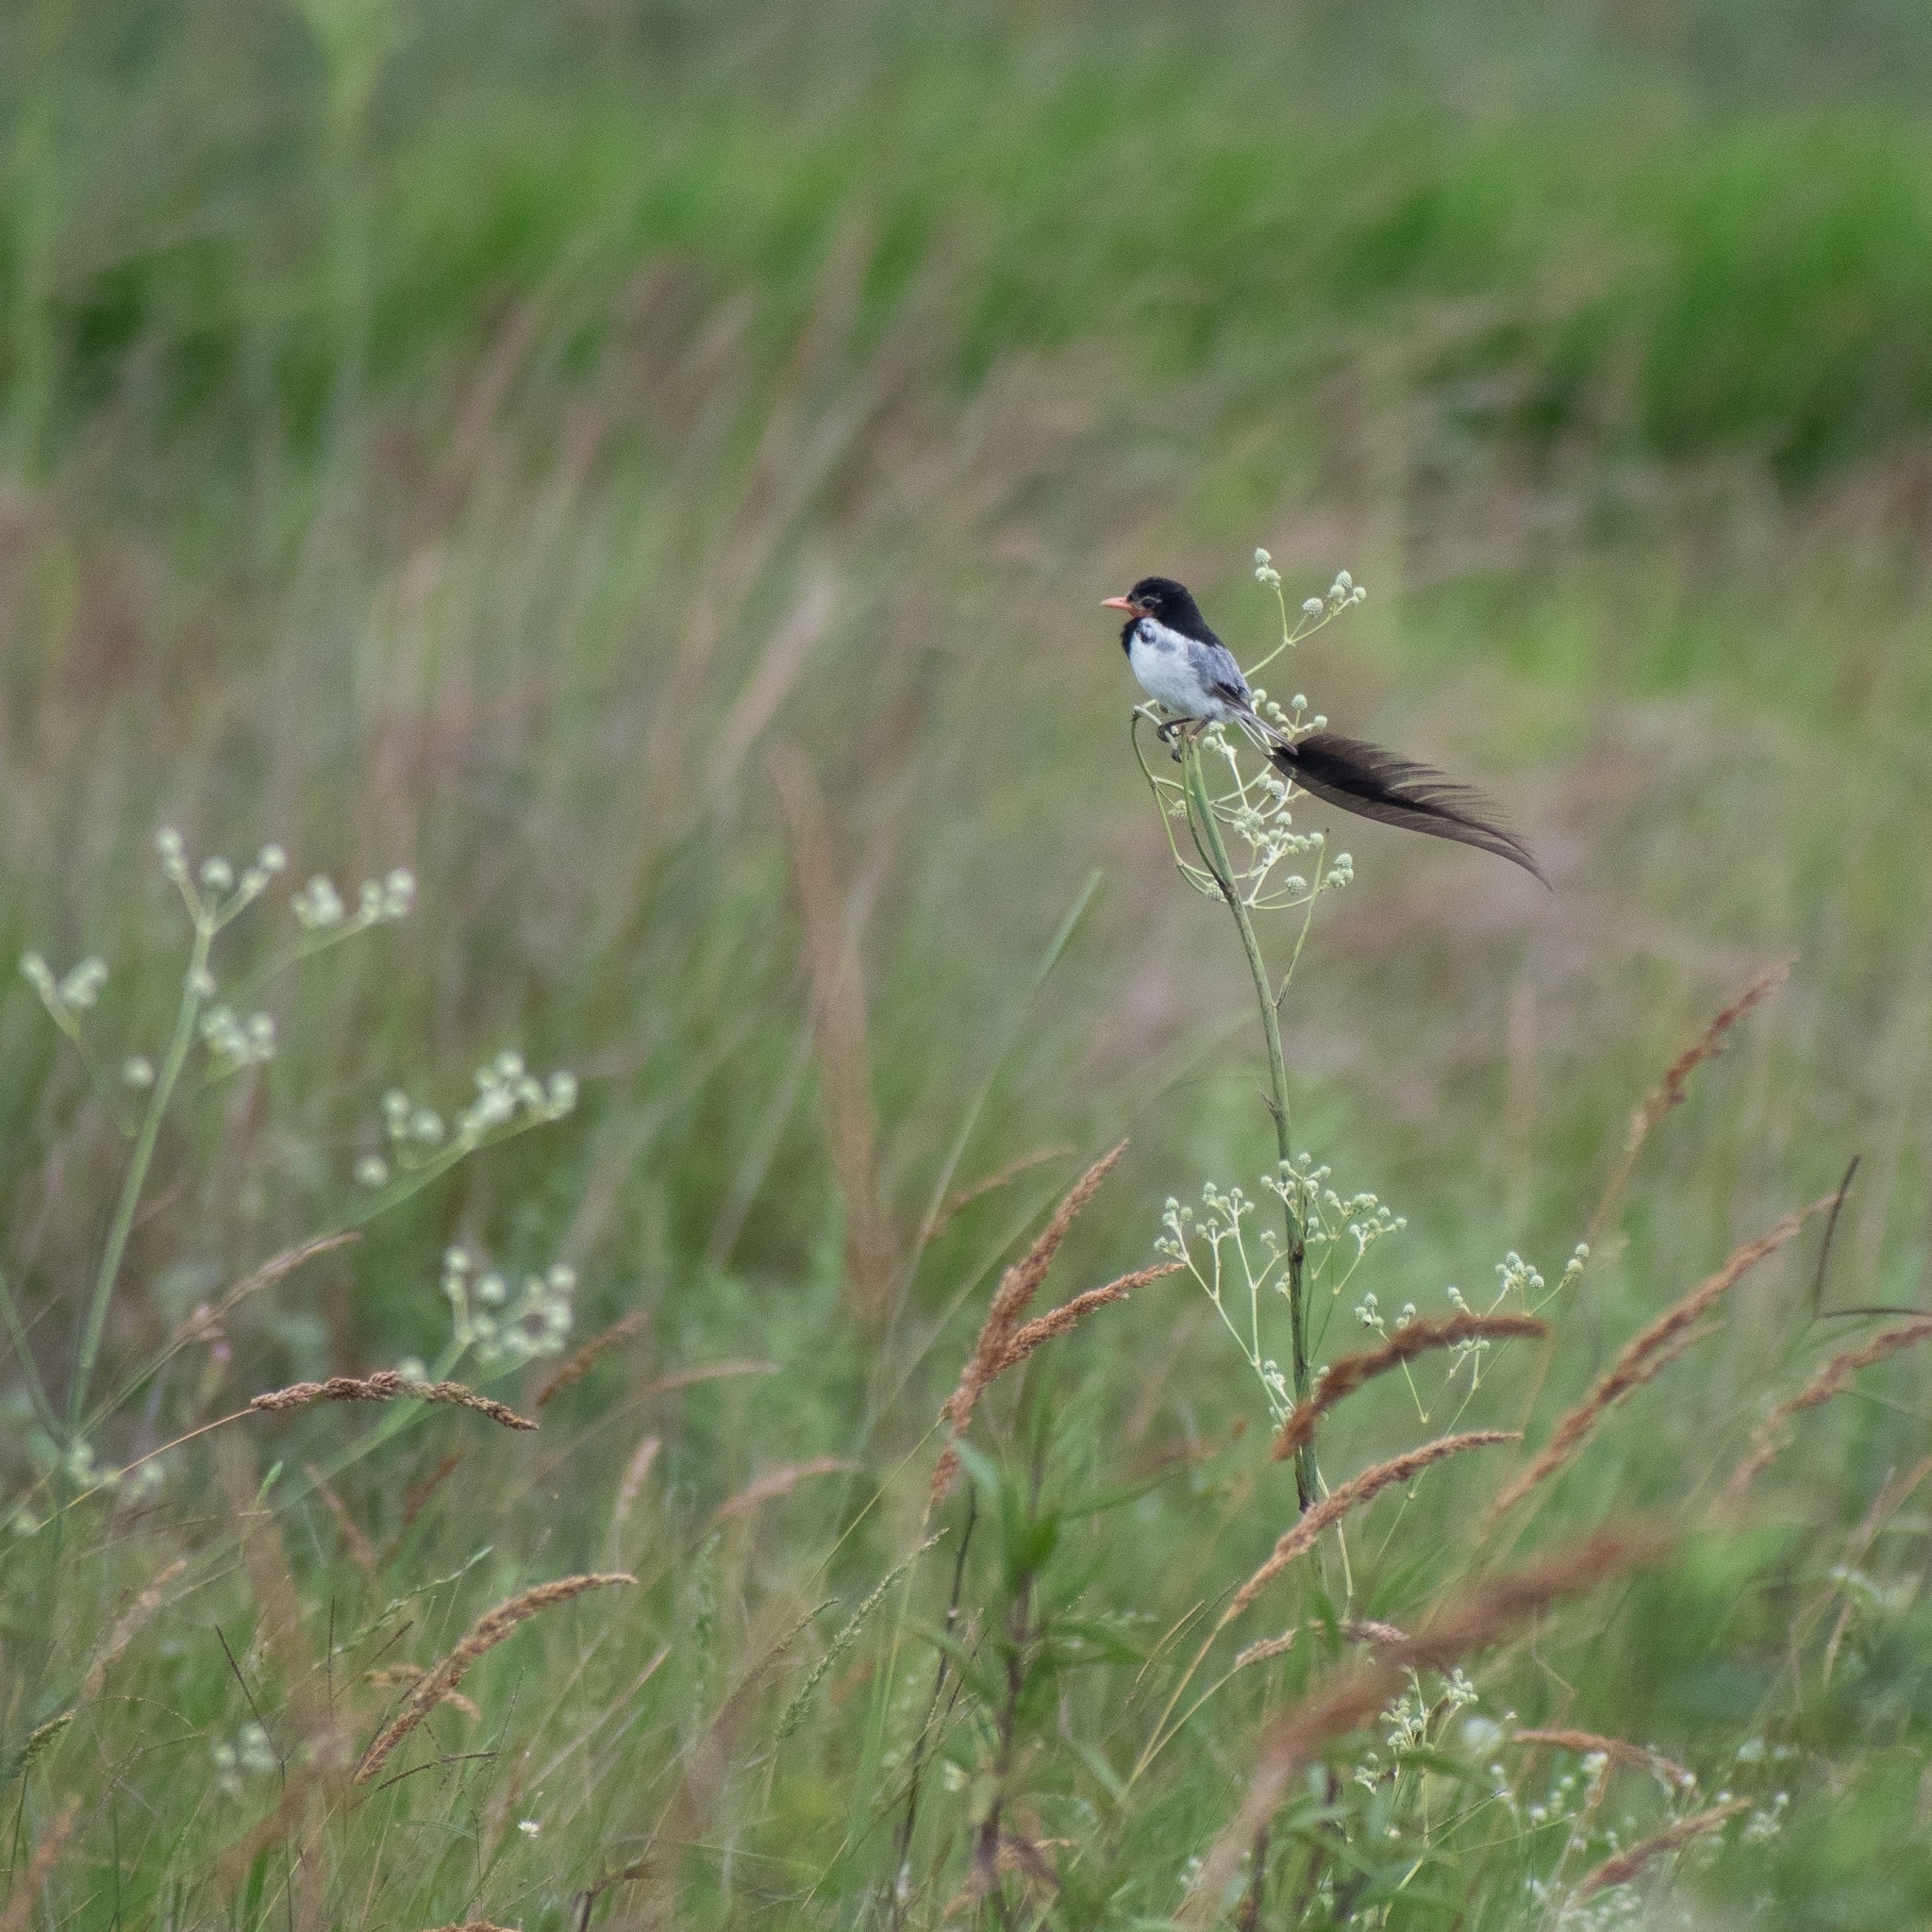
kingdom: Animalia
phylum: Chordata
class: Aves
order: Passeriformes
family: Tyrannidae
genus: Alectrurus
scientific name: Alectrurus risora
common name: Strange-tailed tyrant
